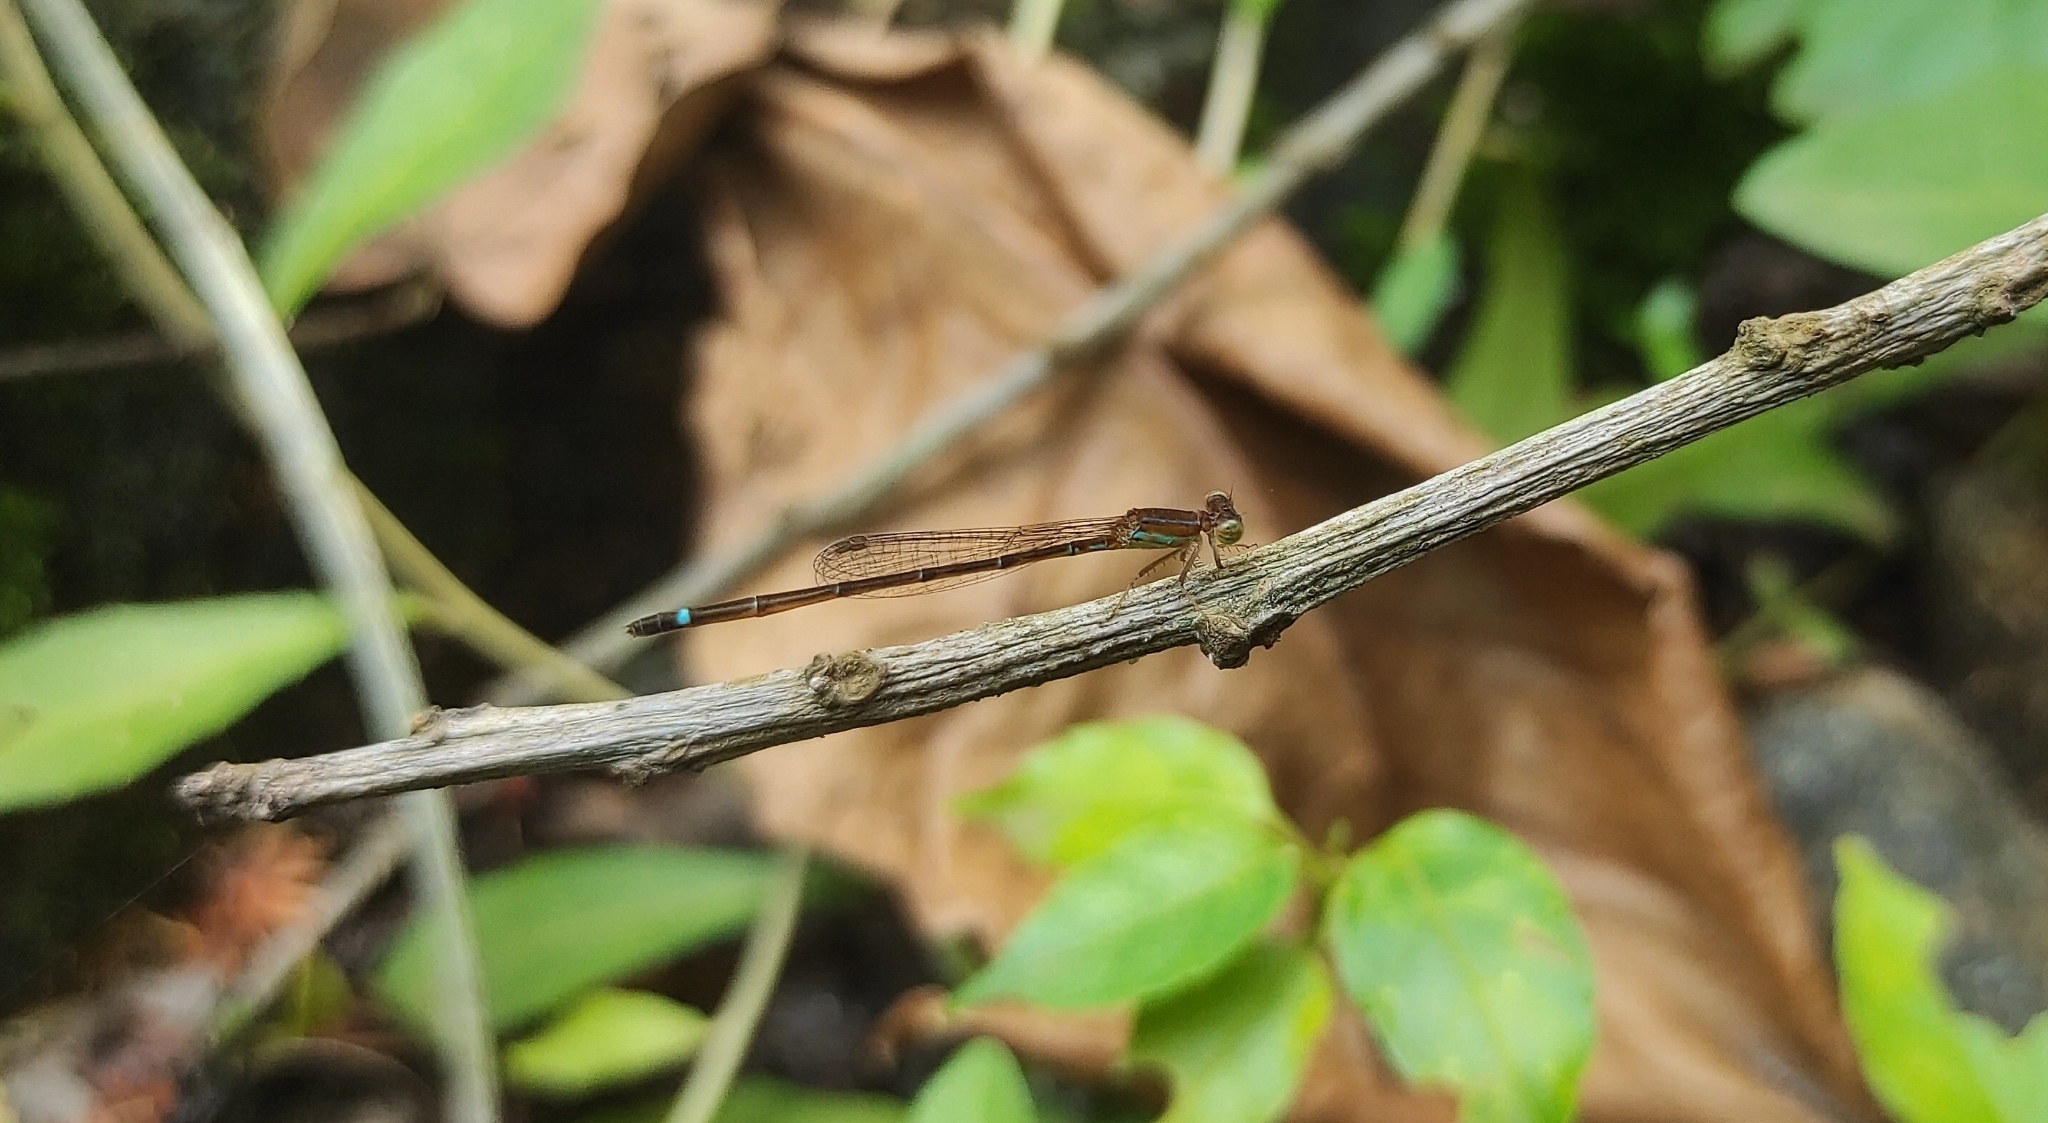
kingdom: Animalia
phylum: Arthropoda
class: Insecta
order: Odonata
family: Coenagrionidae
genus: Mortonagrion
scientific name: Mortonagrion varralli
